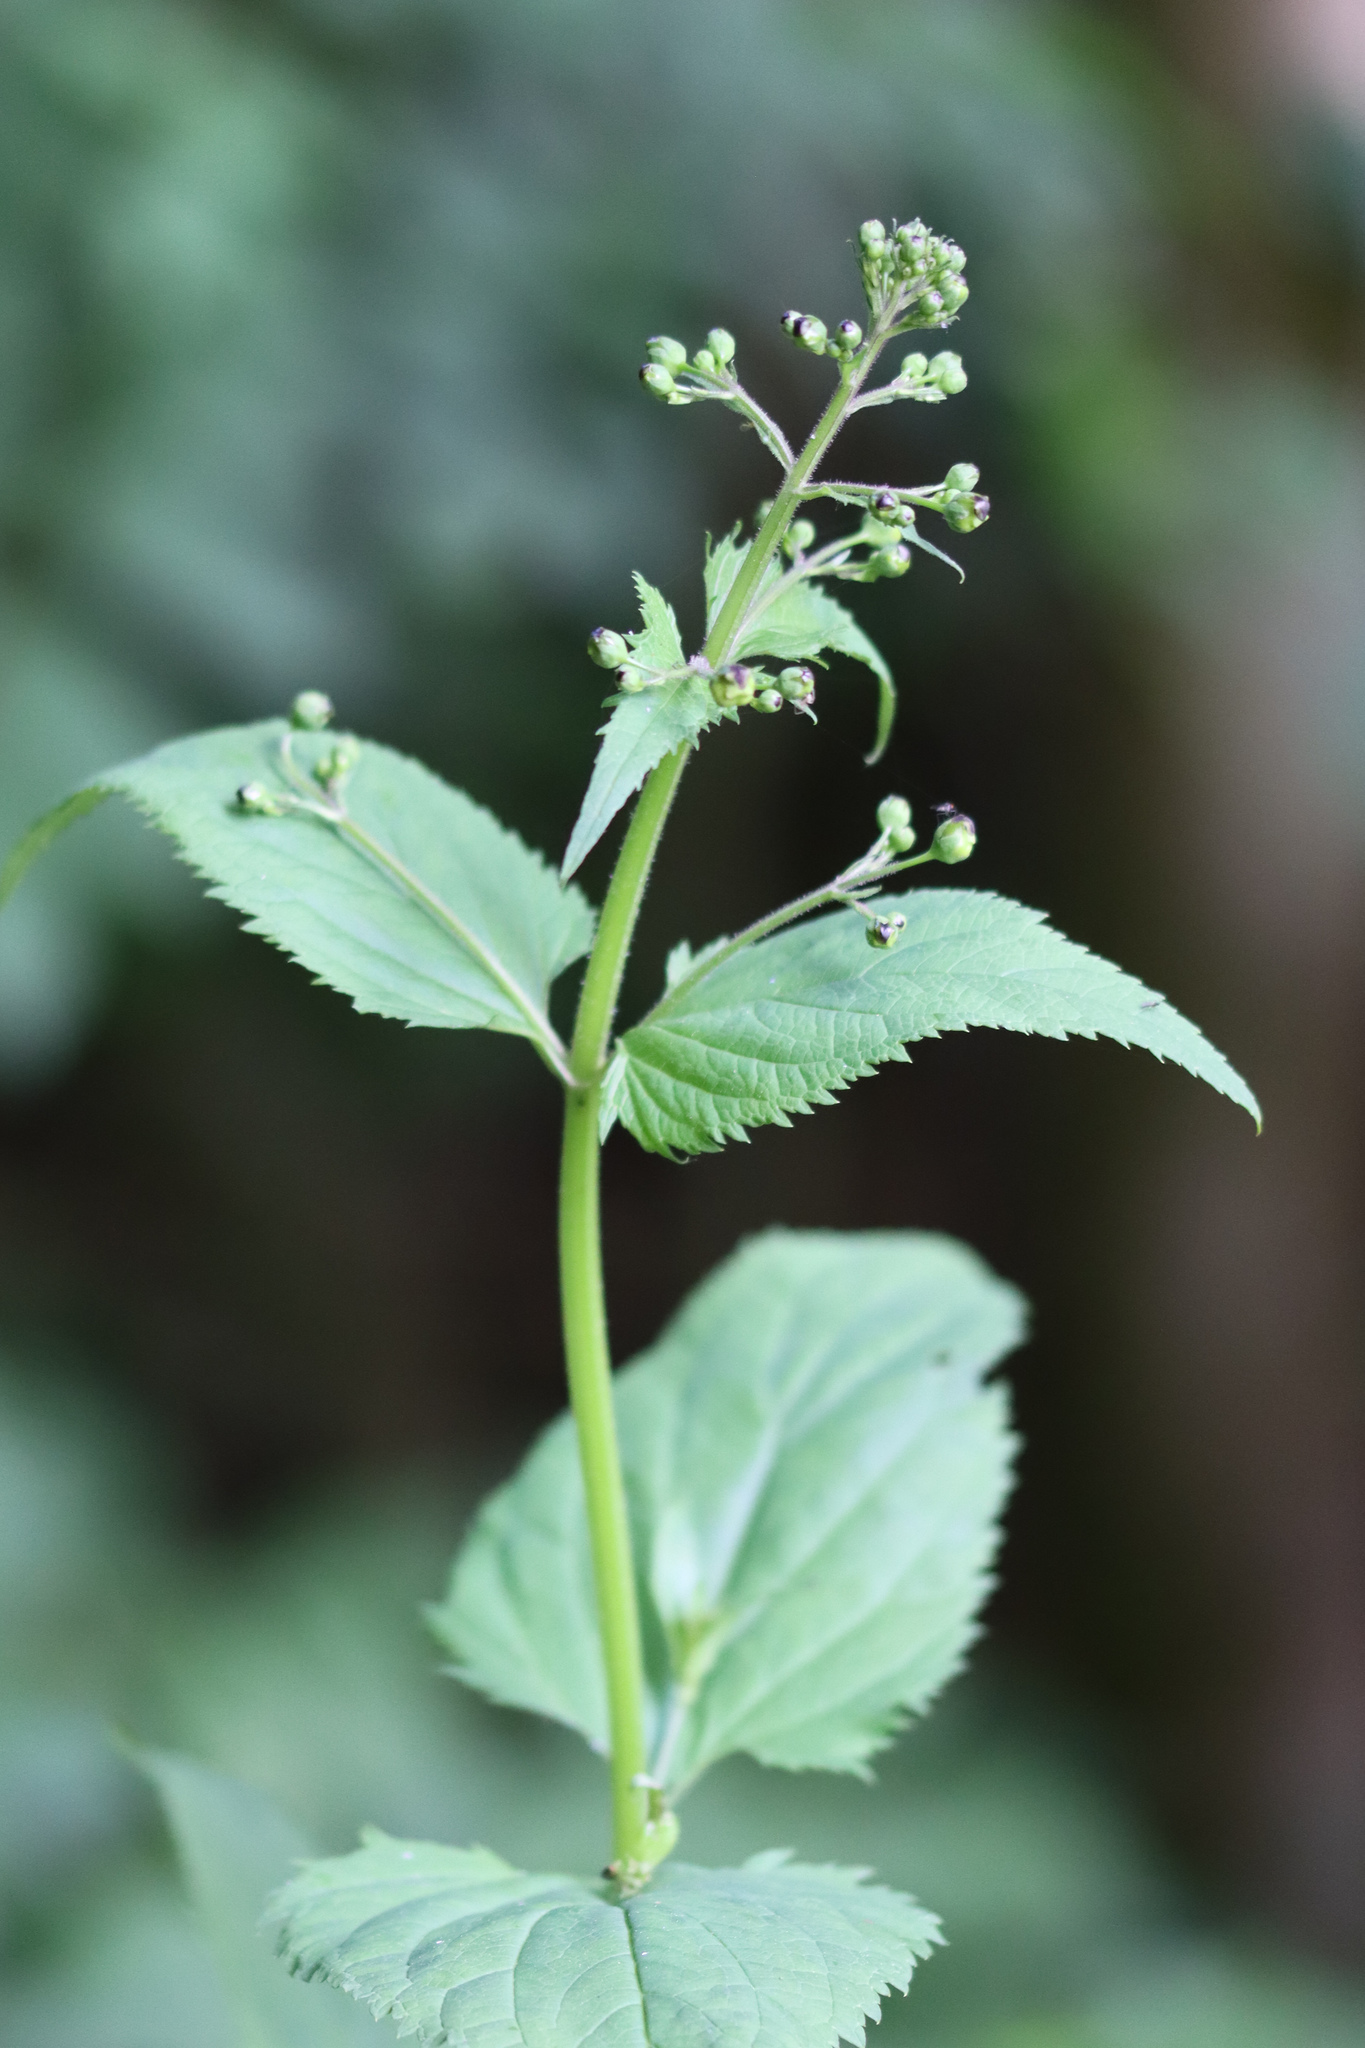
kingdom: Plantae
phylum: Tracheophyta
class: Magnoliopsida
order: Lamiales
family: Scrophulariaceae
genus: Scrophularia
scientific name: Scrophularia nodosa
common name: Common figwort
